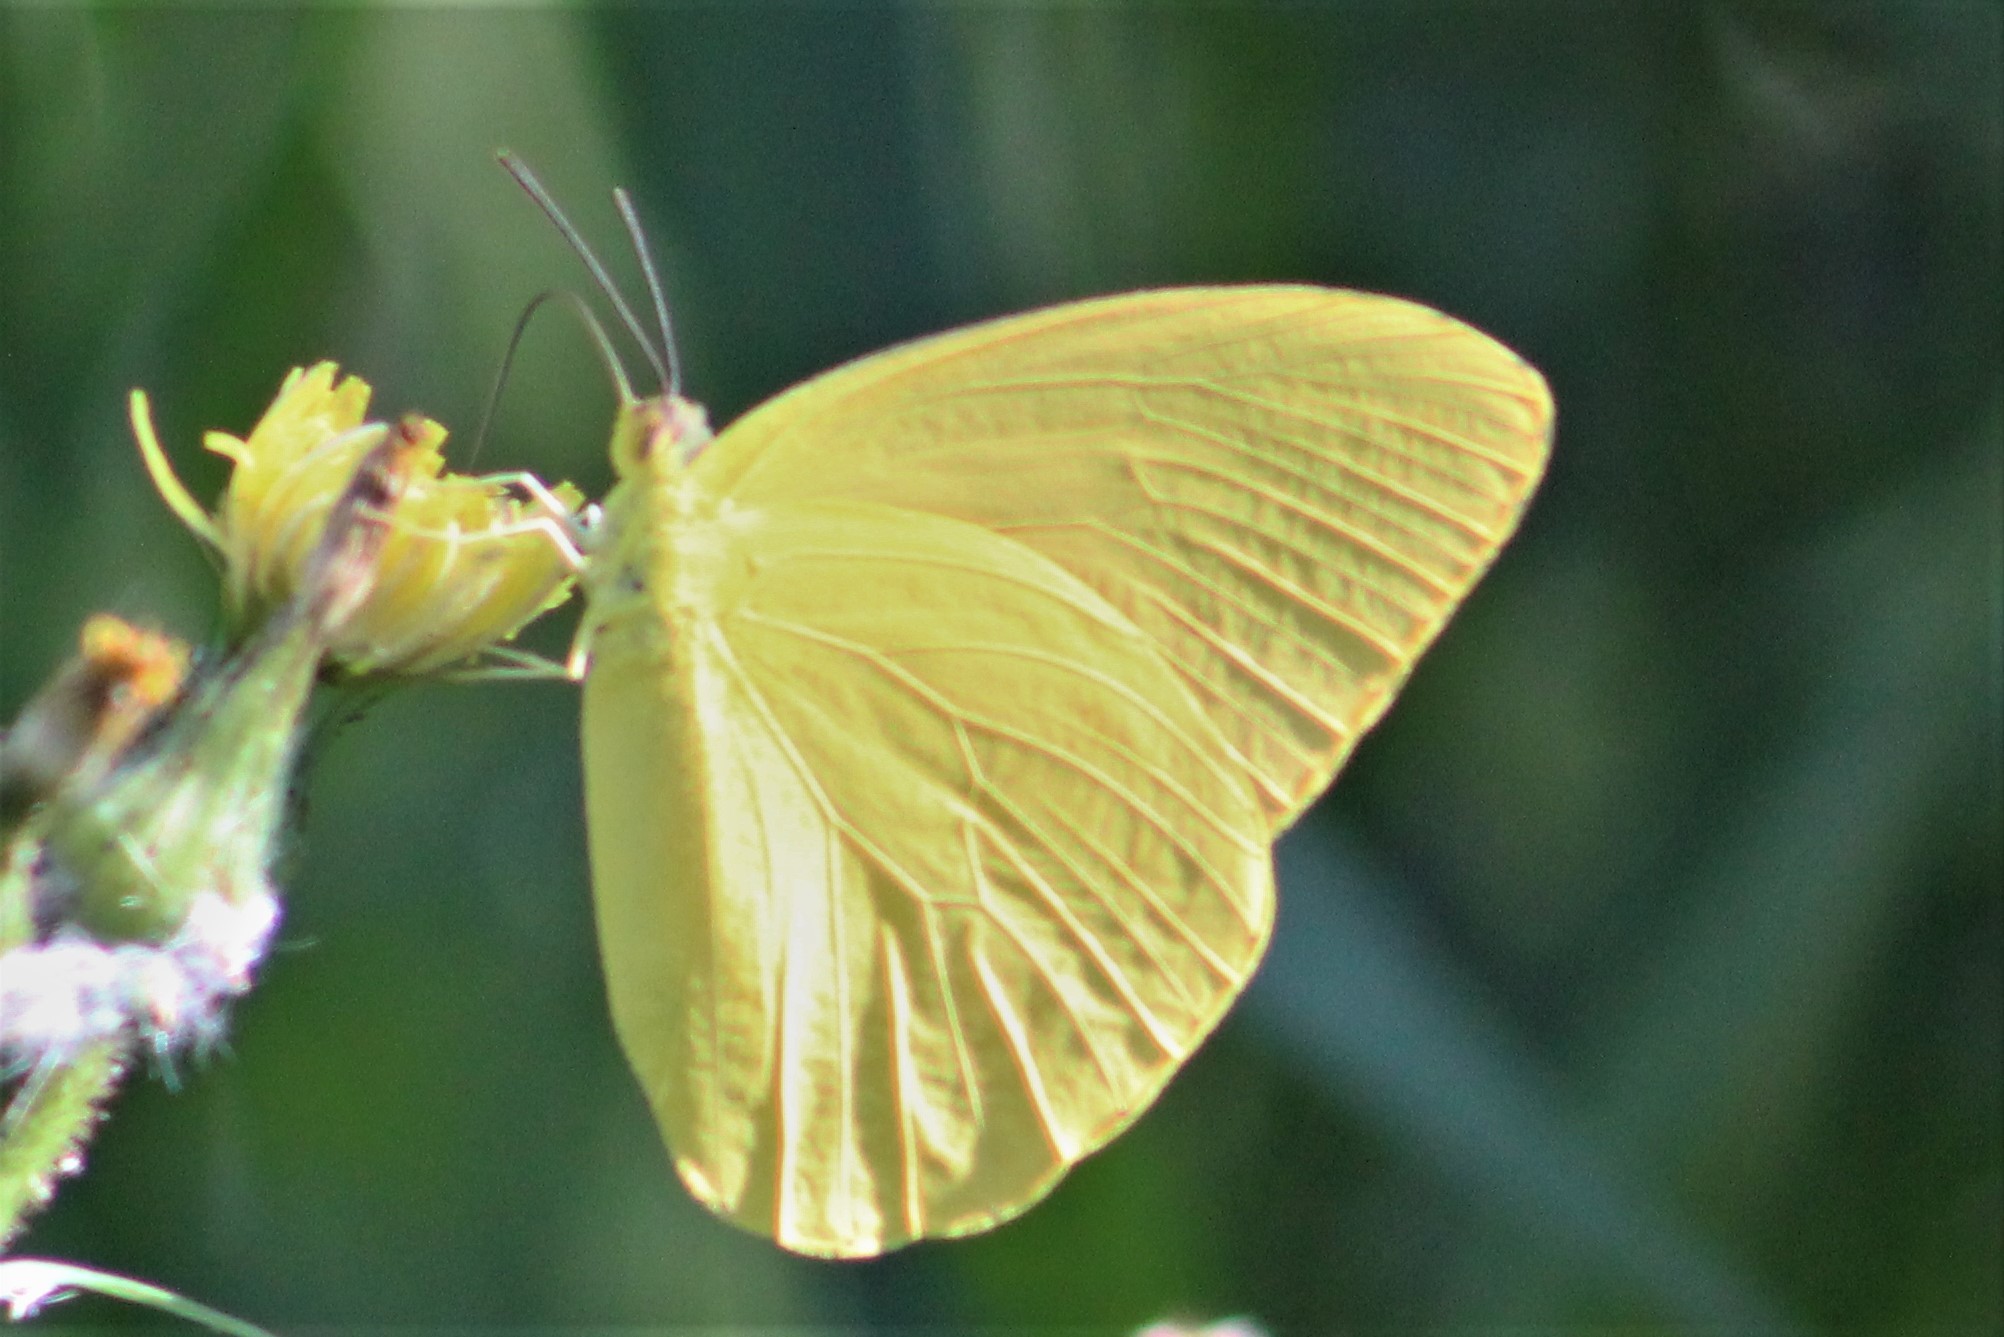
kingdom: Animalia
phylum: Arthropoda
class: Insecta
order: Lepidoptera
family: Pieridae
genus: Phoebis
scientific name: Phoebis agarithe
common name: Large orange sulphur
